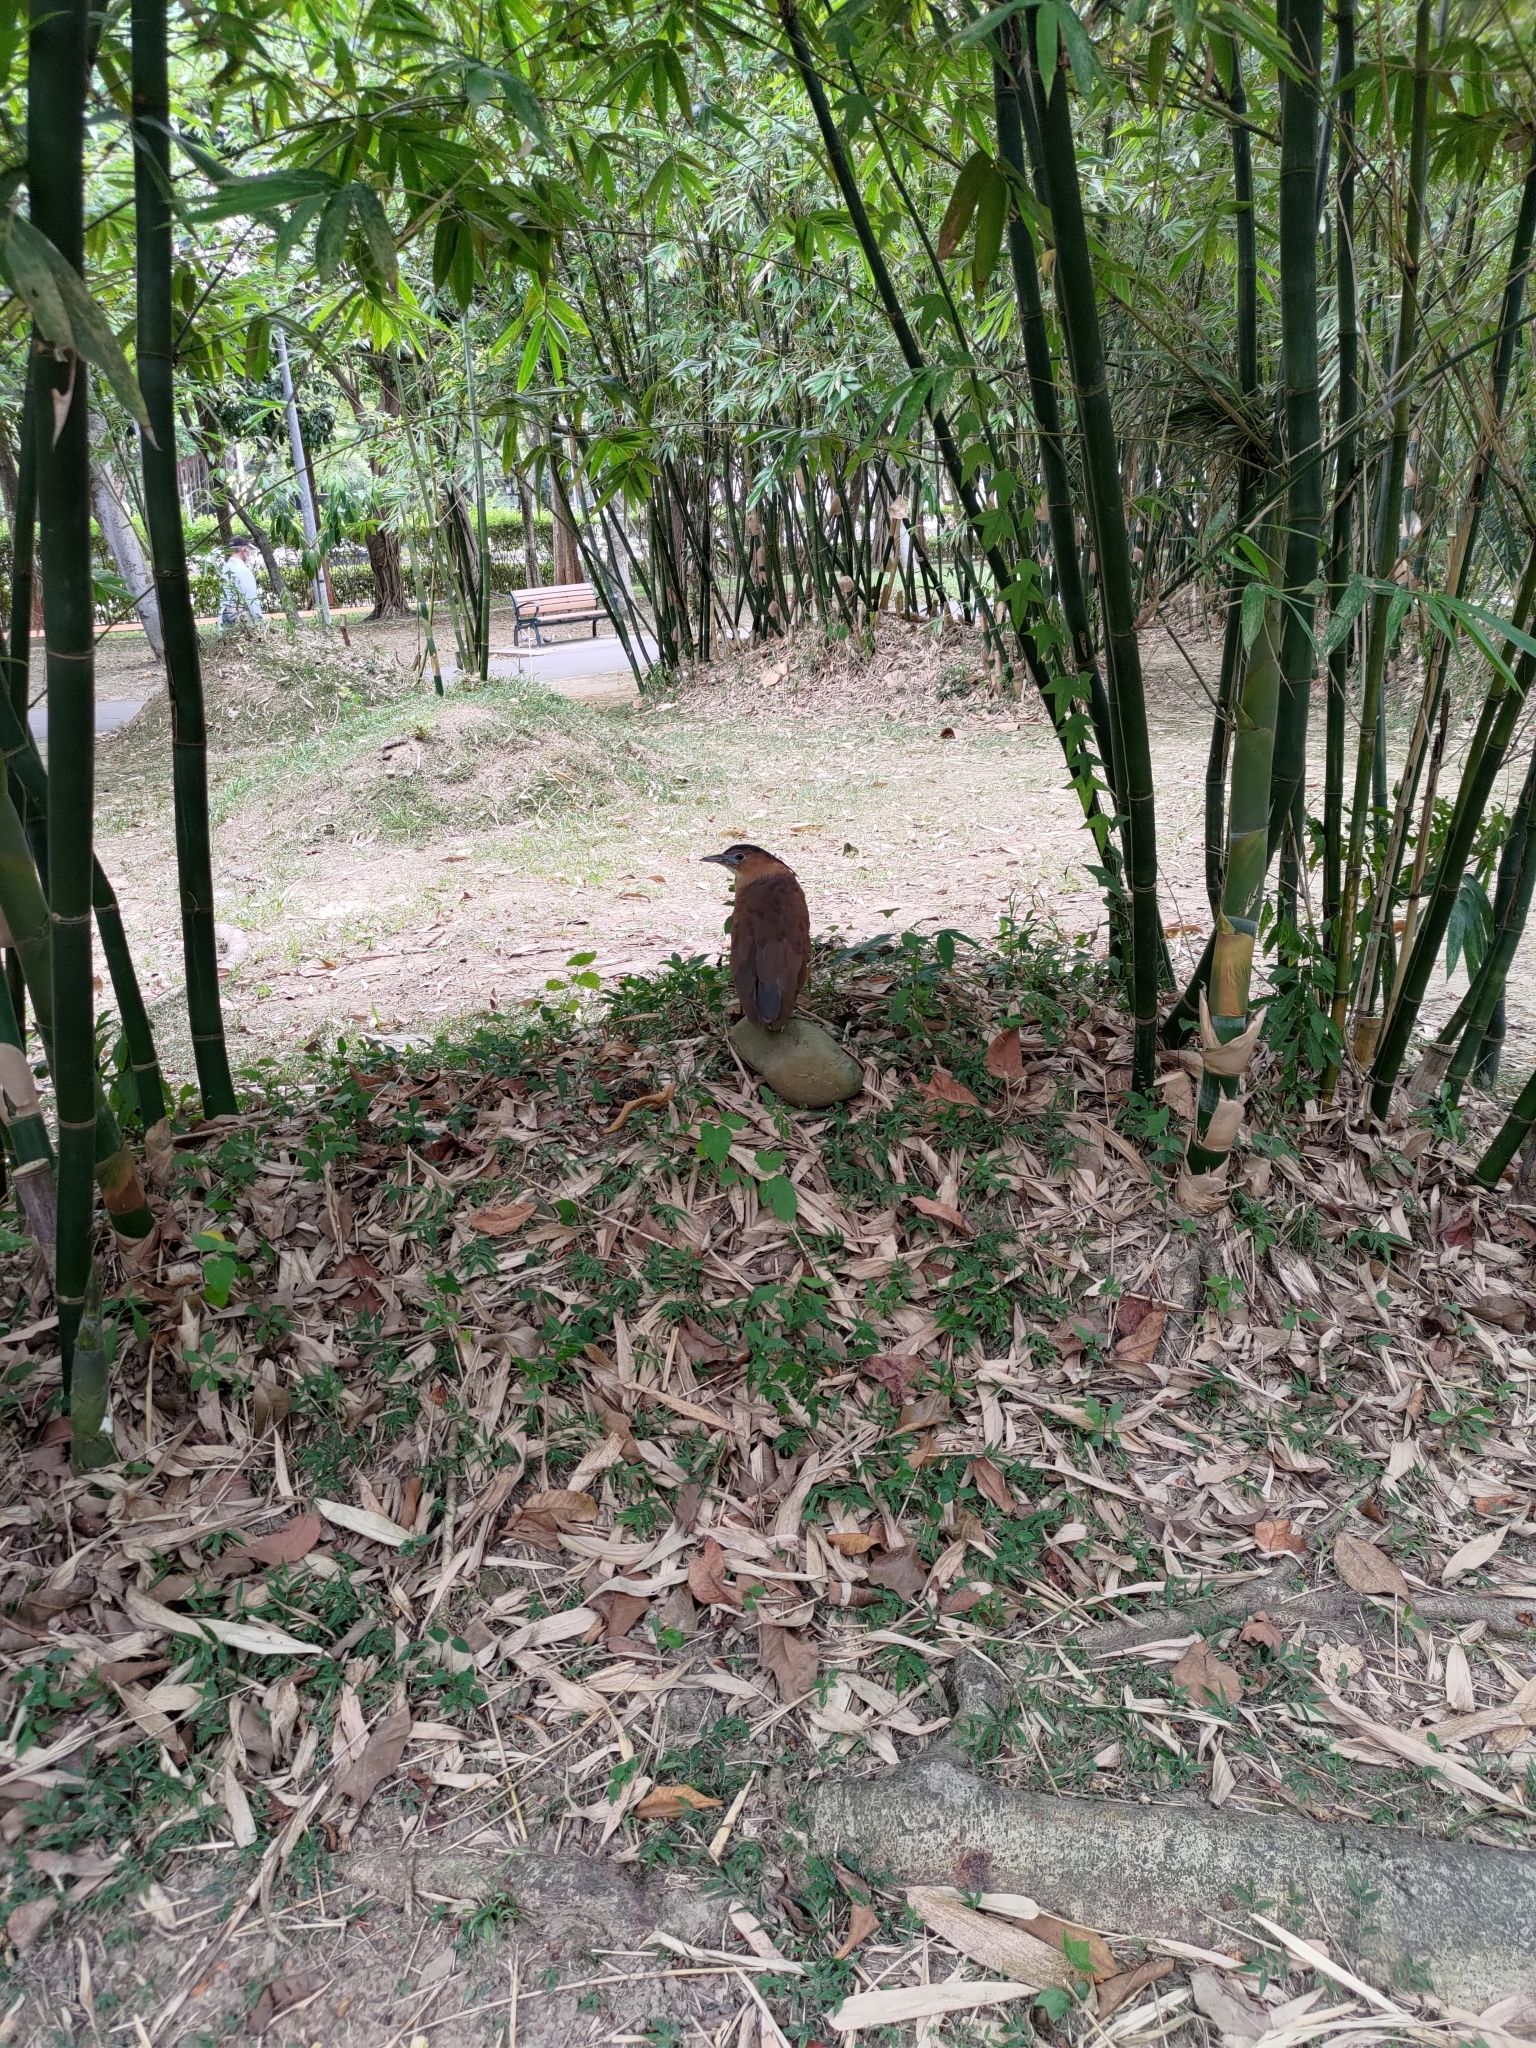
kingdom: Animalia
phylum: Chordata
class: Aves
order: Pelecaniformes
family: Ardeidae
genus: Gorsachius
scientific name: Gorsachius melanolophus
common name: Malayan night heron
